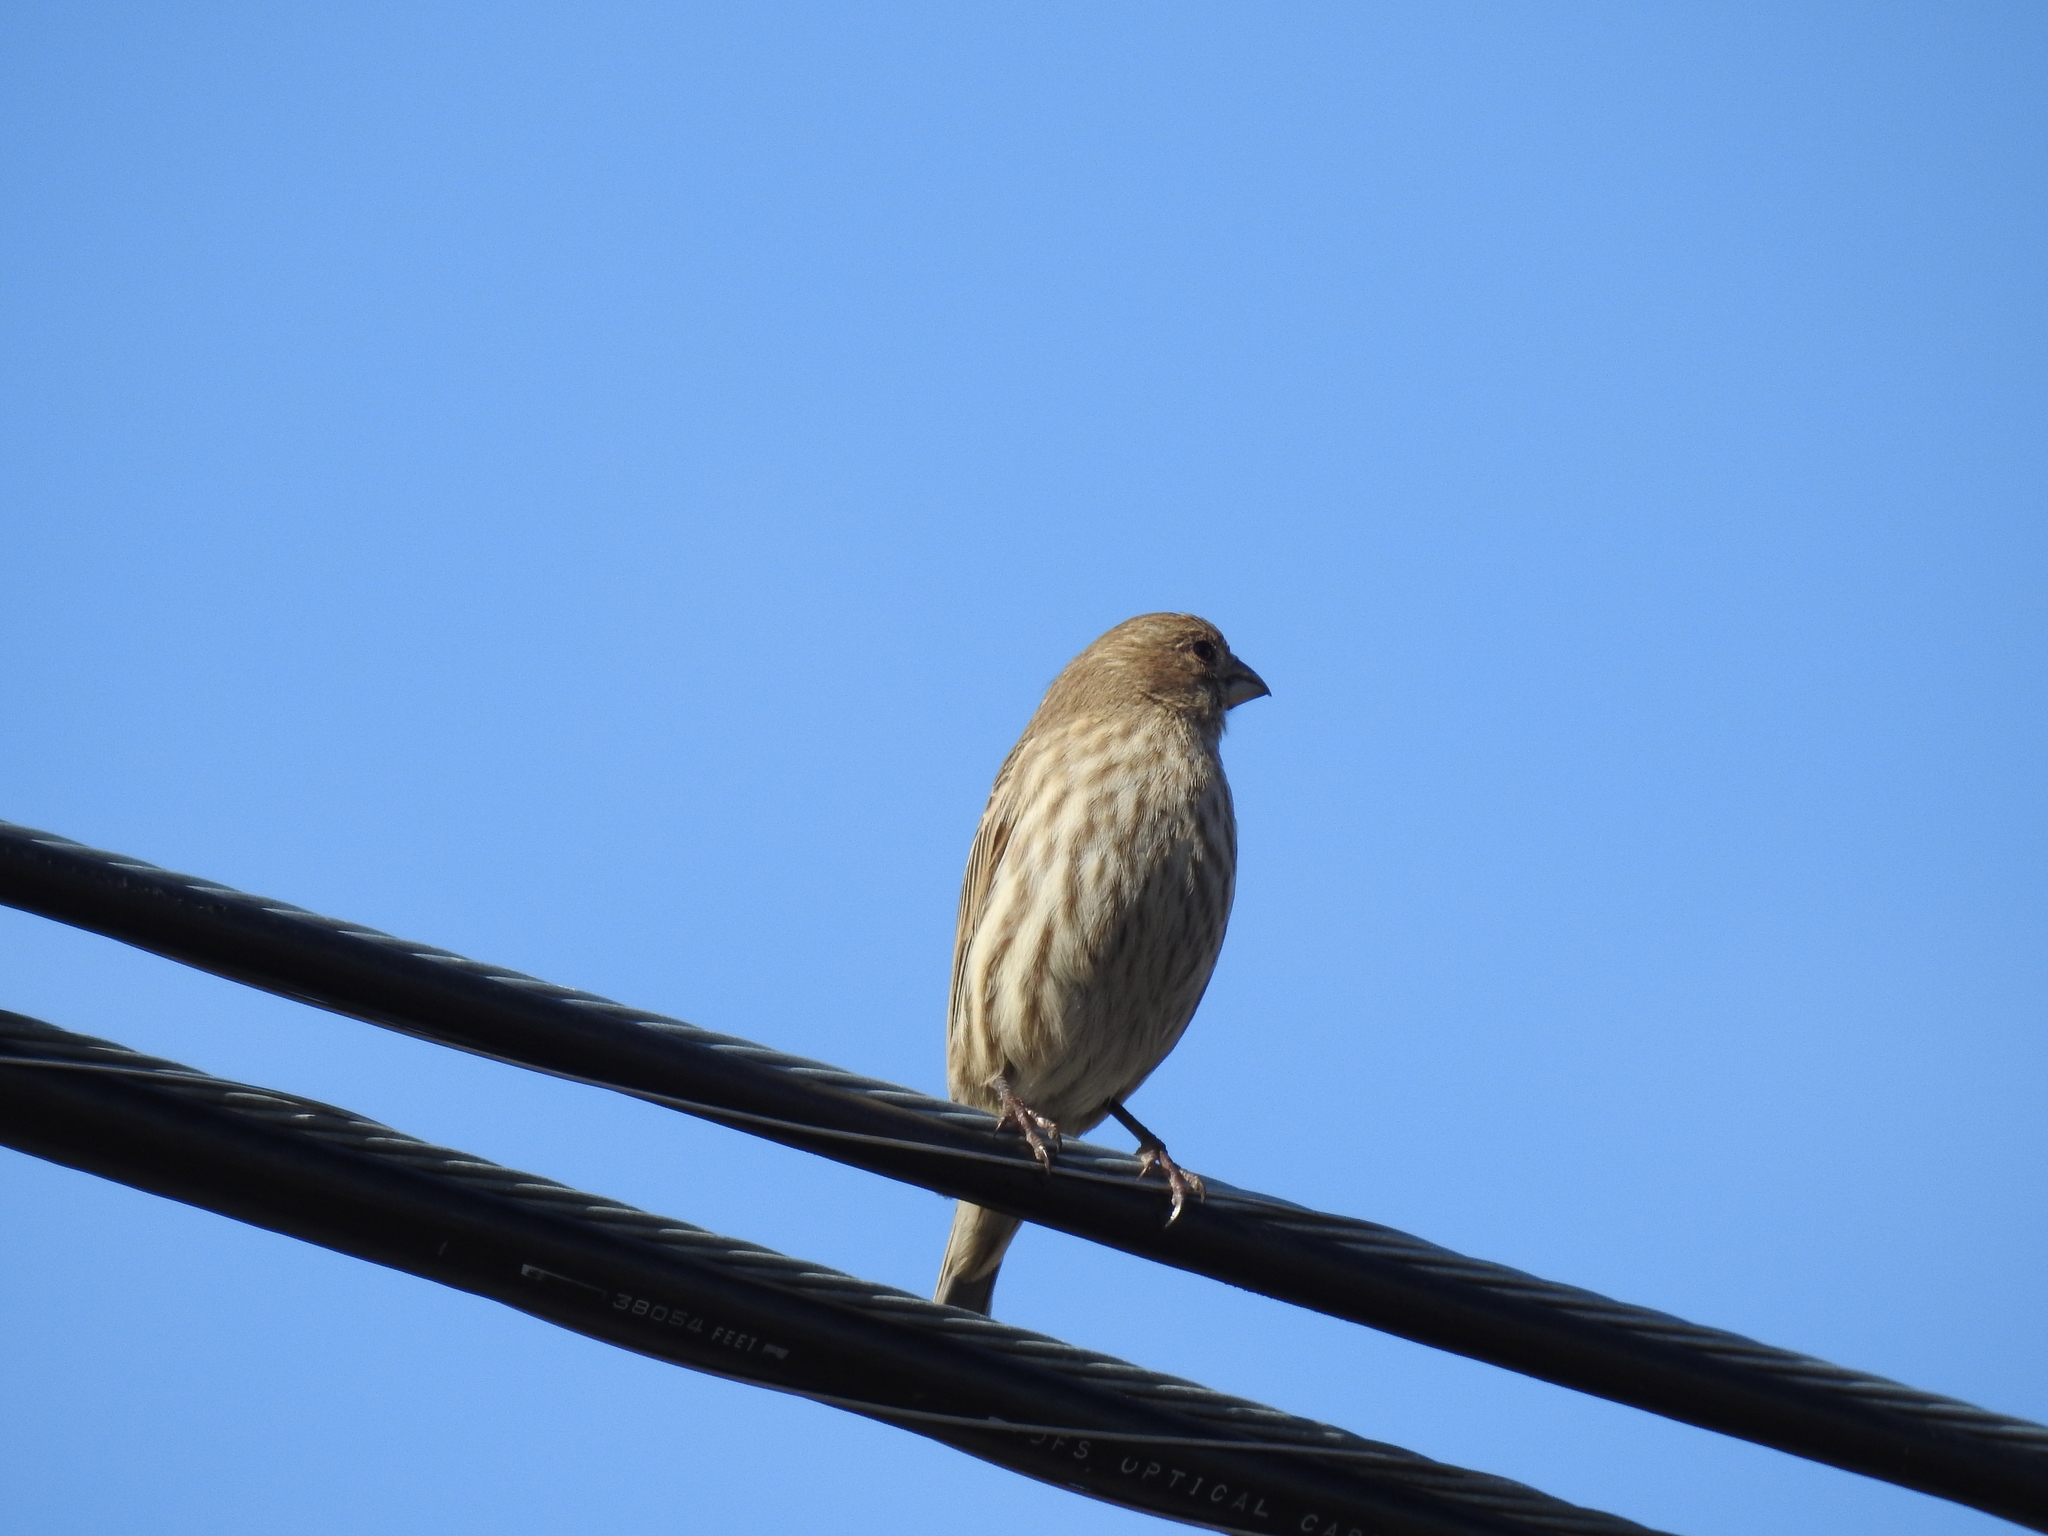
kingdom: Animalia
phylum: Chordata
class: Aves
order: Passeriformes
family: Fringillidae
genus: Haemorhous
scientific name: Haemorhous mexicanus
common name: House finch
